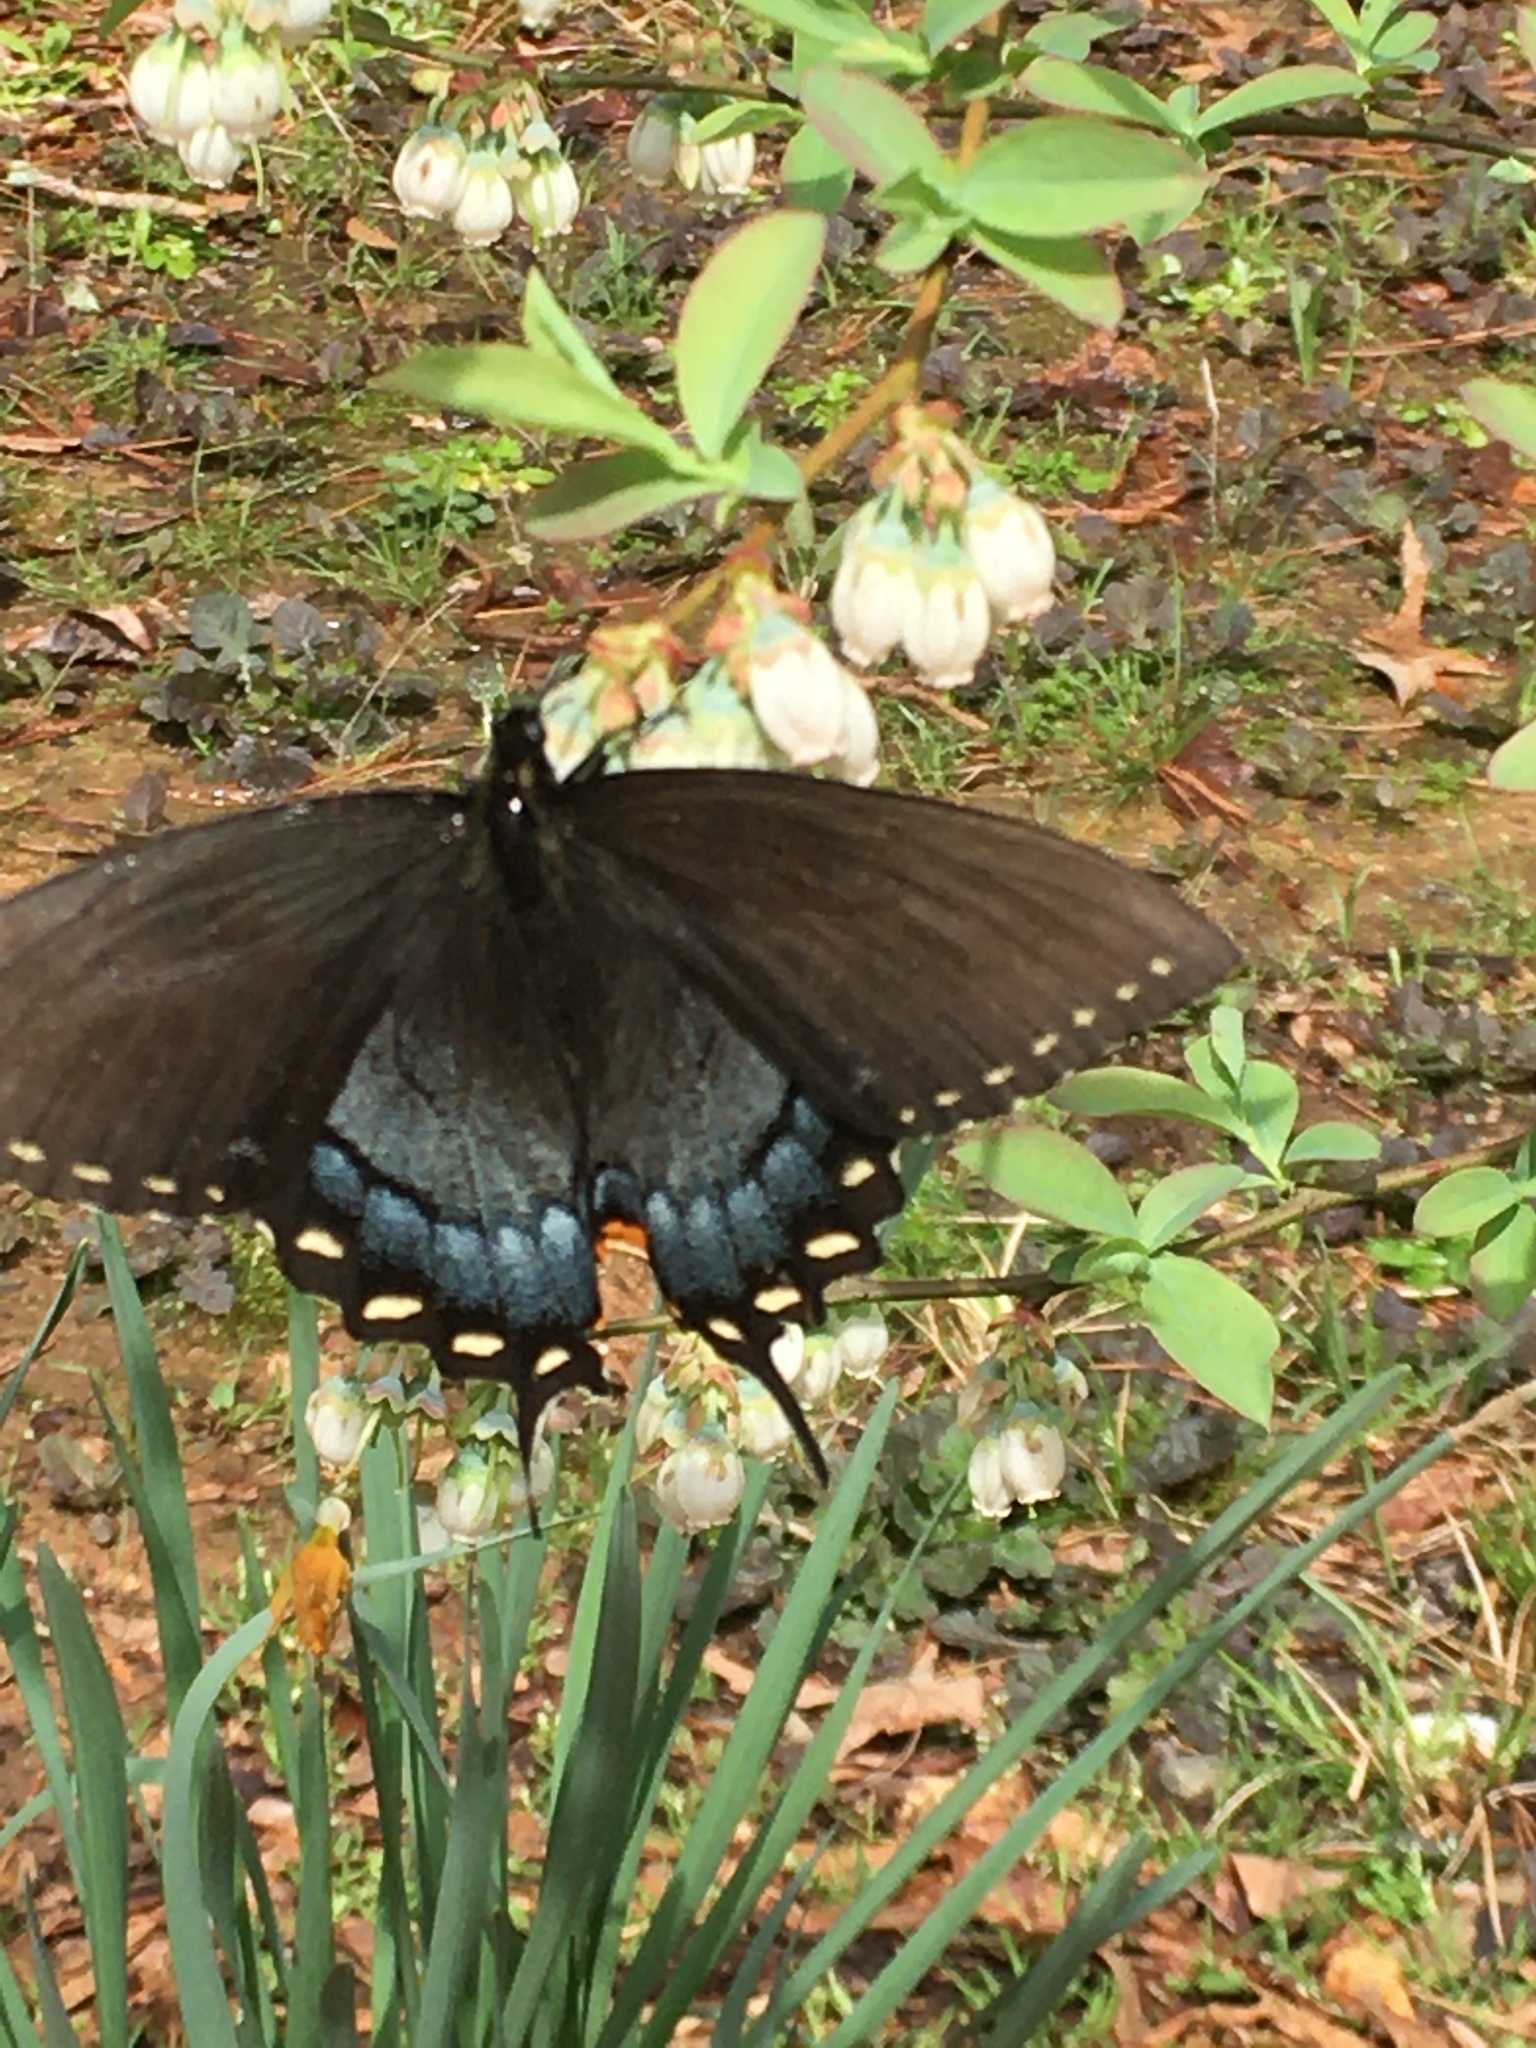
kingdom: Animalia
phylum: Arthropoda
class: Insecta
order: Lepidoptera
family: Papilionidae
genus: Papilio
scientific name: Papilio glaucus
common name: Tiger swallowtail
